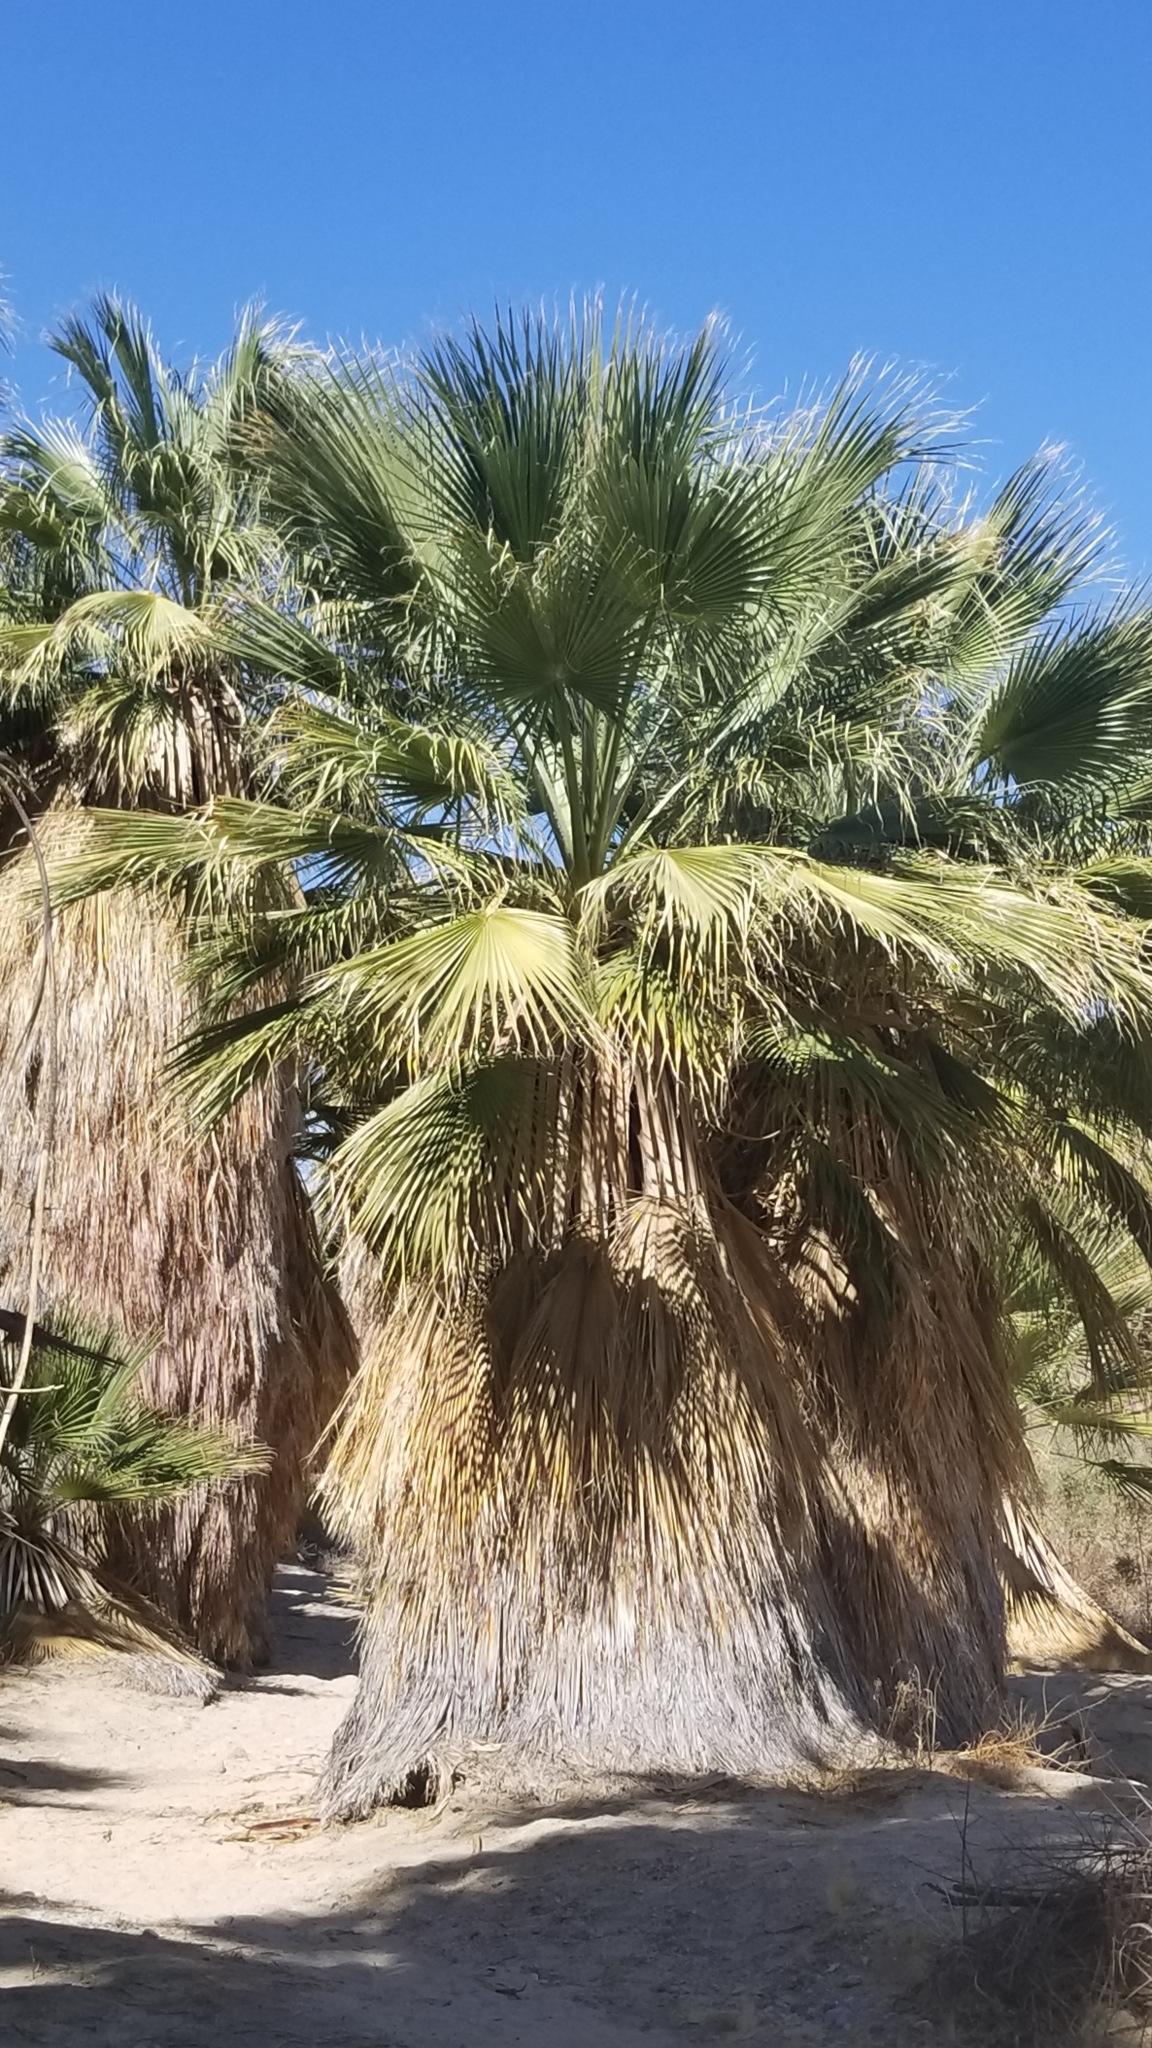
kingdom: Plantae
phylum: Tracheophyta
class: Liliopsida
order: Arecales
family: Arecaceae
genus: Washingtonia
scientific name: Washingtonia filifera
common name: California fan palm
